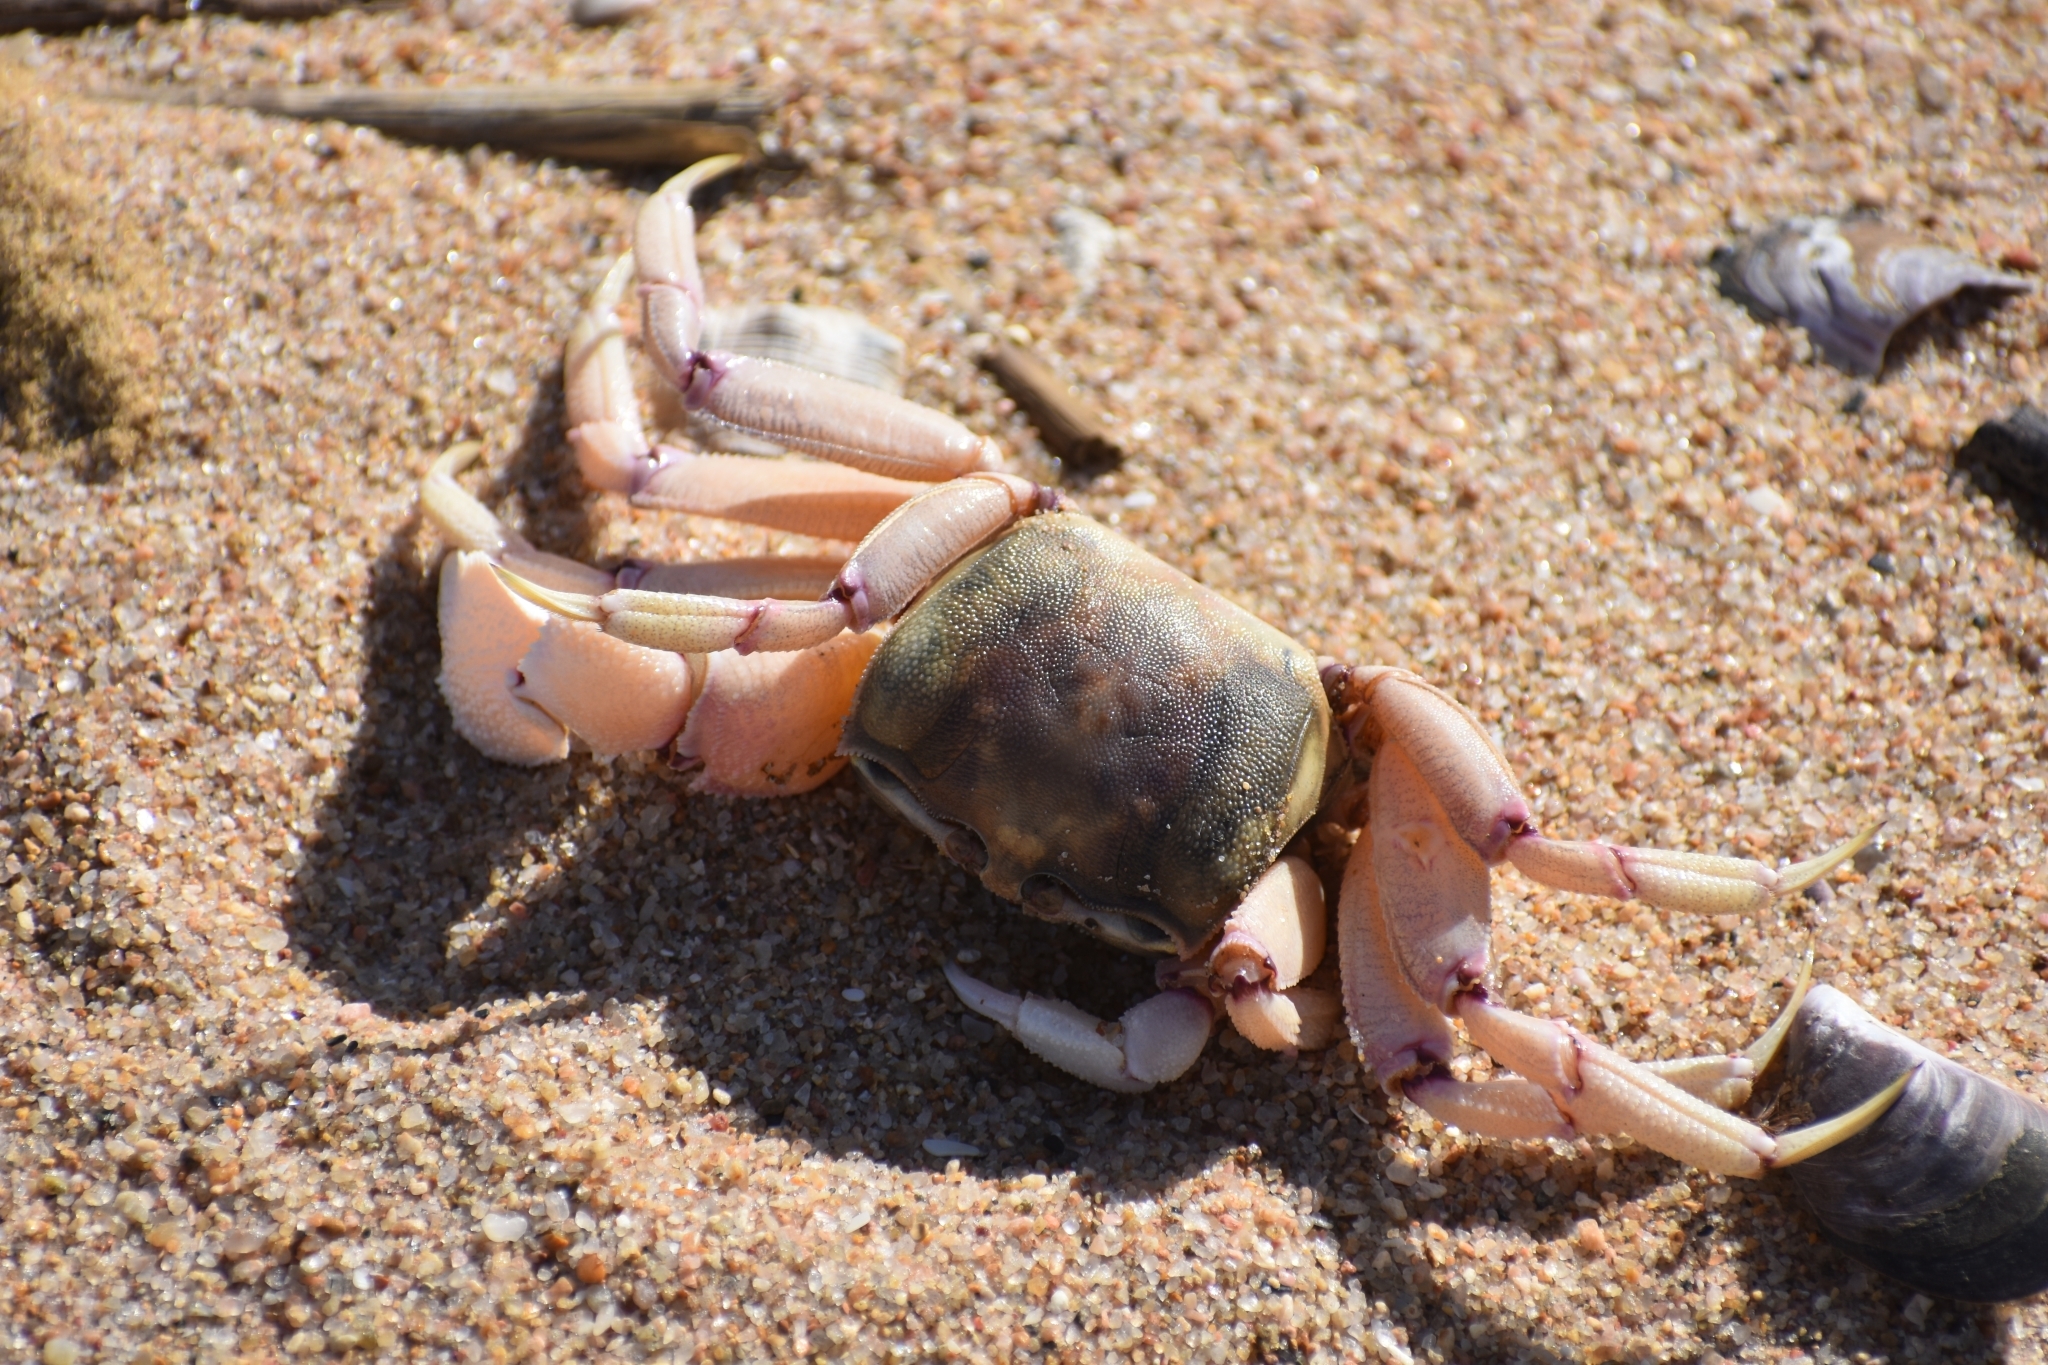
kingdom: Animalia
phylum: Arthropoda
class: Malacostraca
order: Decapoda
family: Ocypodidae
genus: Ocypode
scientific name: Ocypode ryderi
